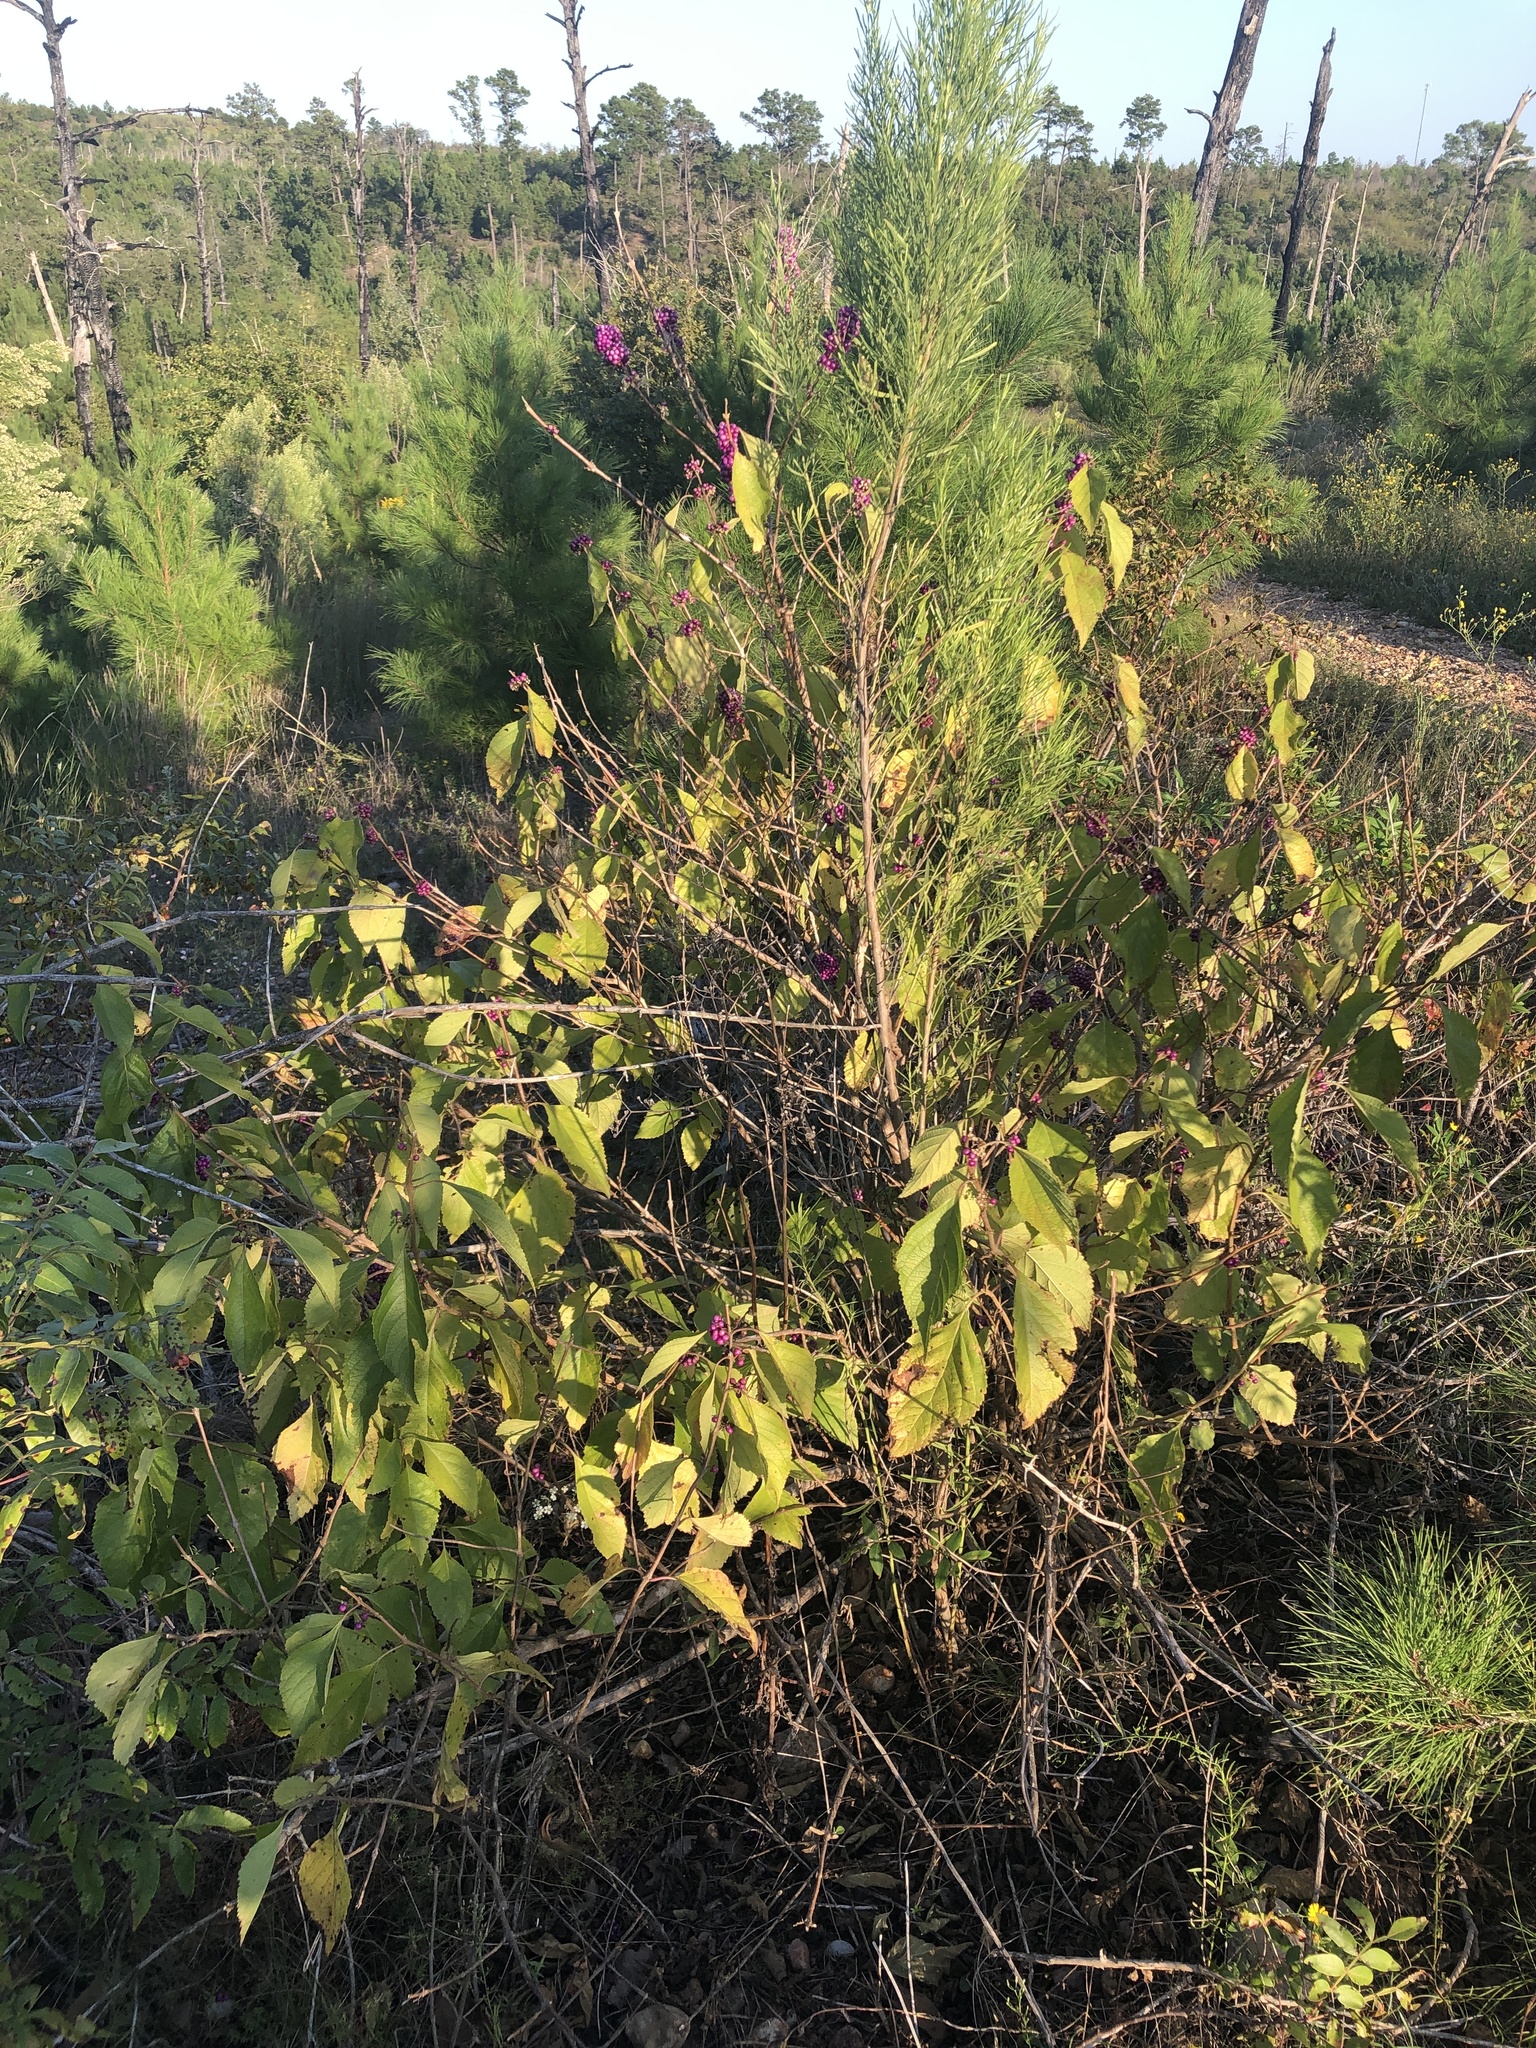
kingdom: Plantae
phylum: Tracheophyta
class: Magnoliopsida
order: Lamiales
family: Lamiaceae
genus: Callicarpa
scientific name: Callicarpa americana
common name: American beautyberry
